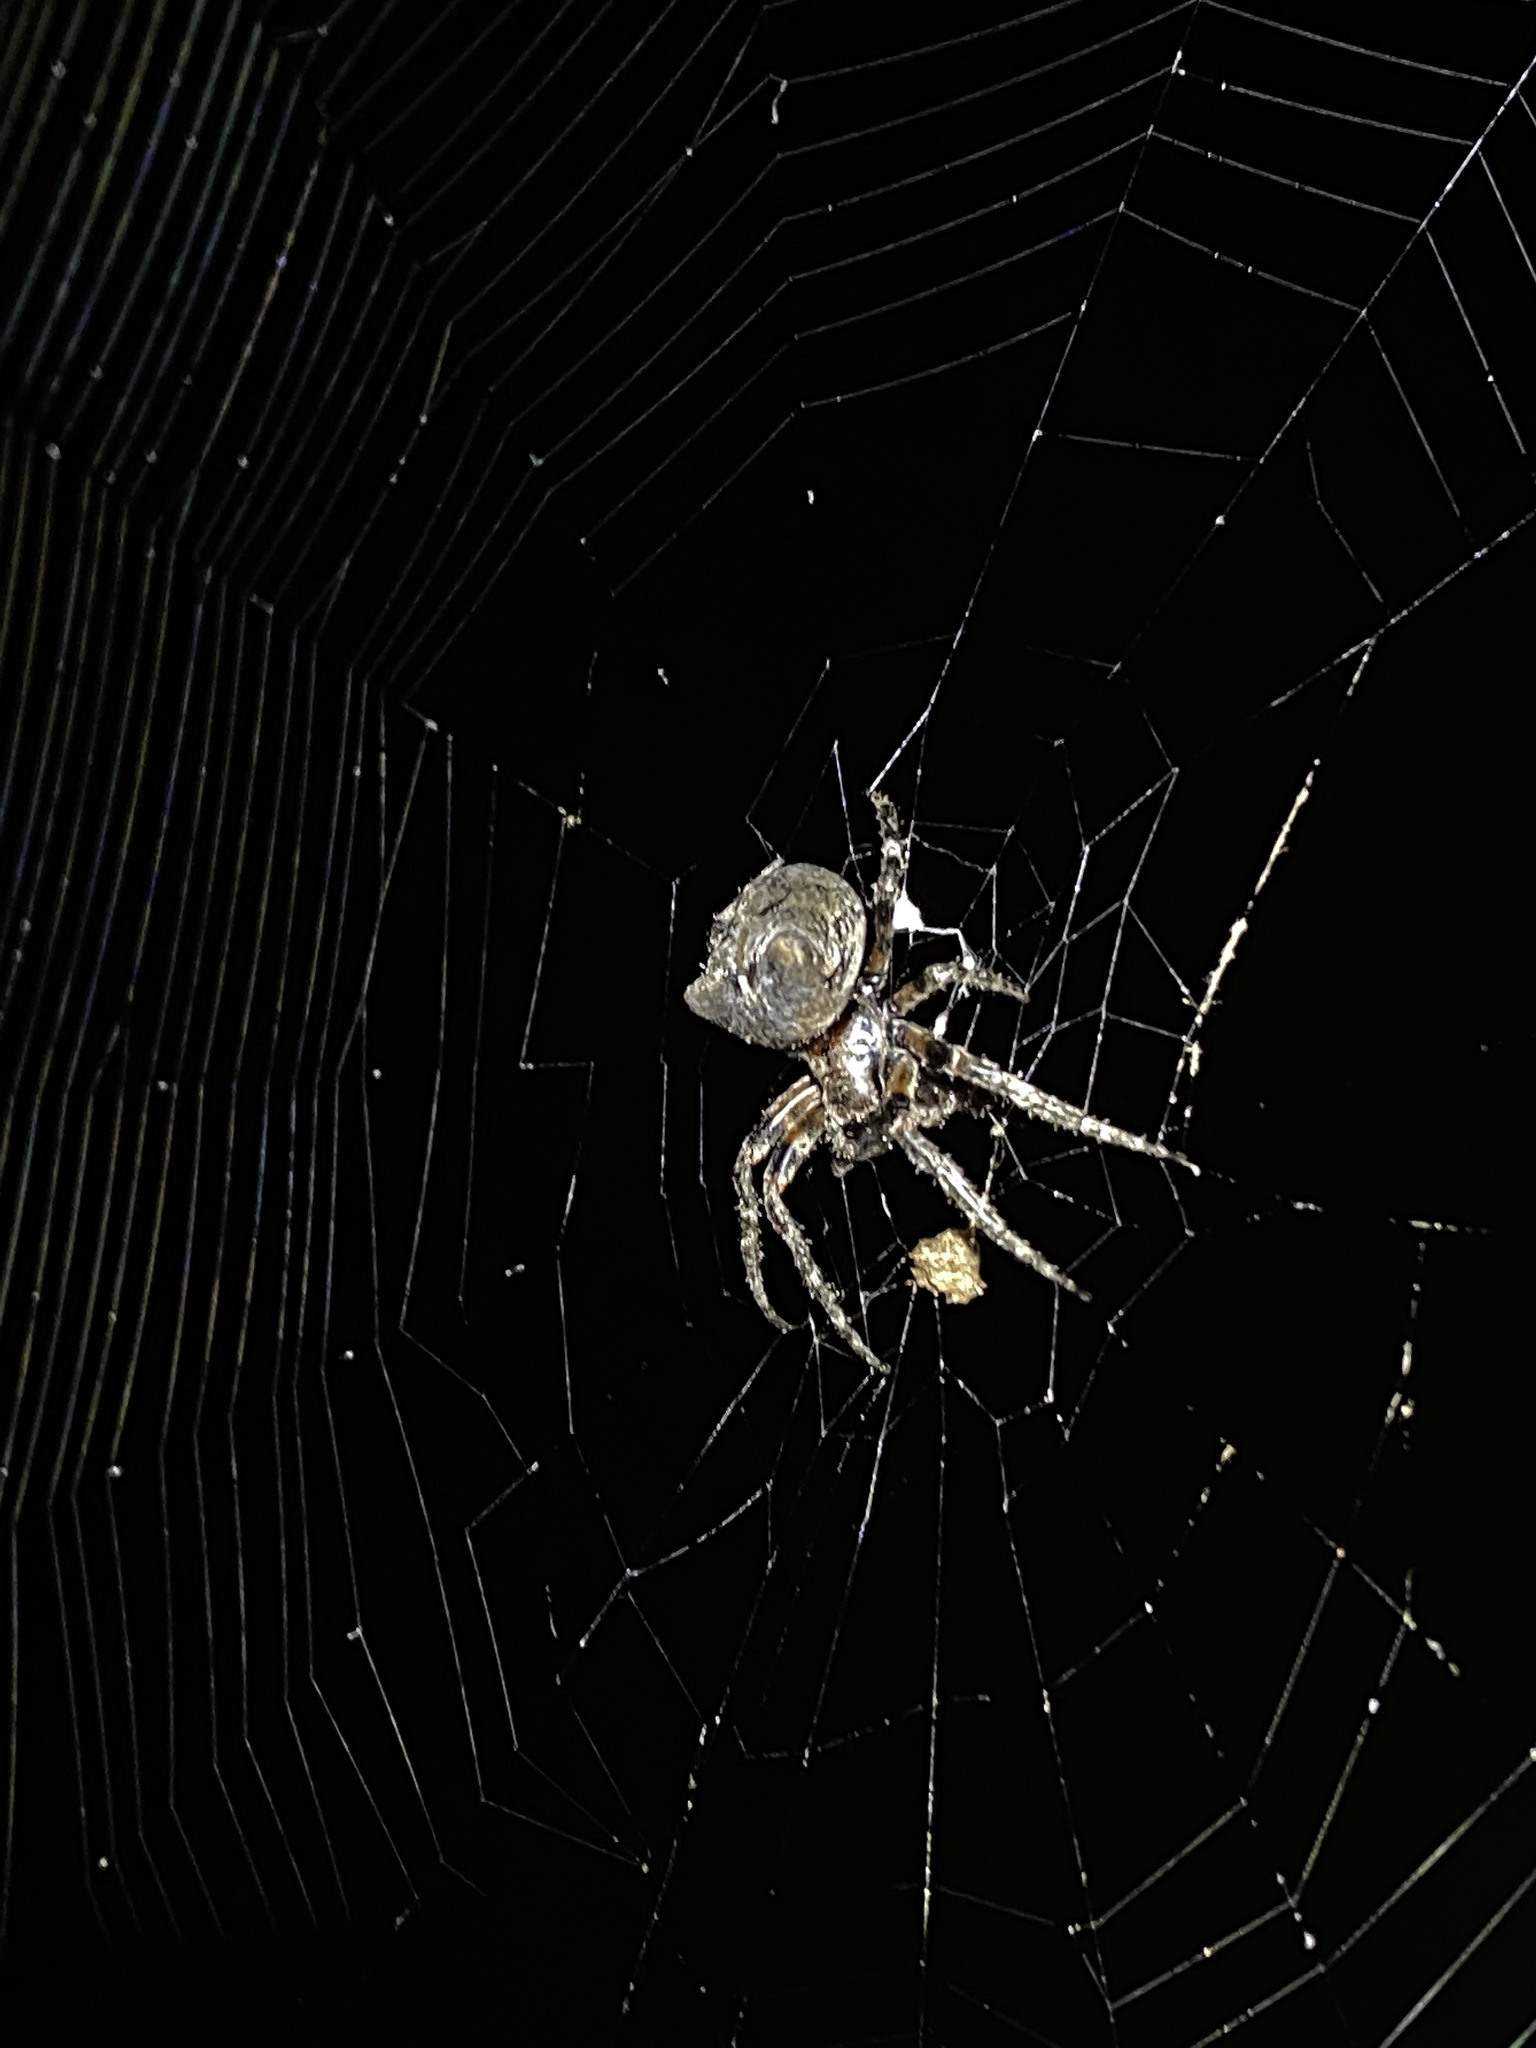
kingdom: Animalia
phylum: Arthropoda
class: Arachnida
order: Araneae
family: Araneidae
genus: Araneus
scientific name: Araneus bicentenarius
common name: Giant lichen orbweaver
